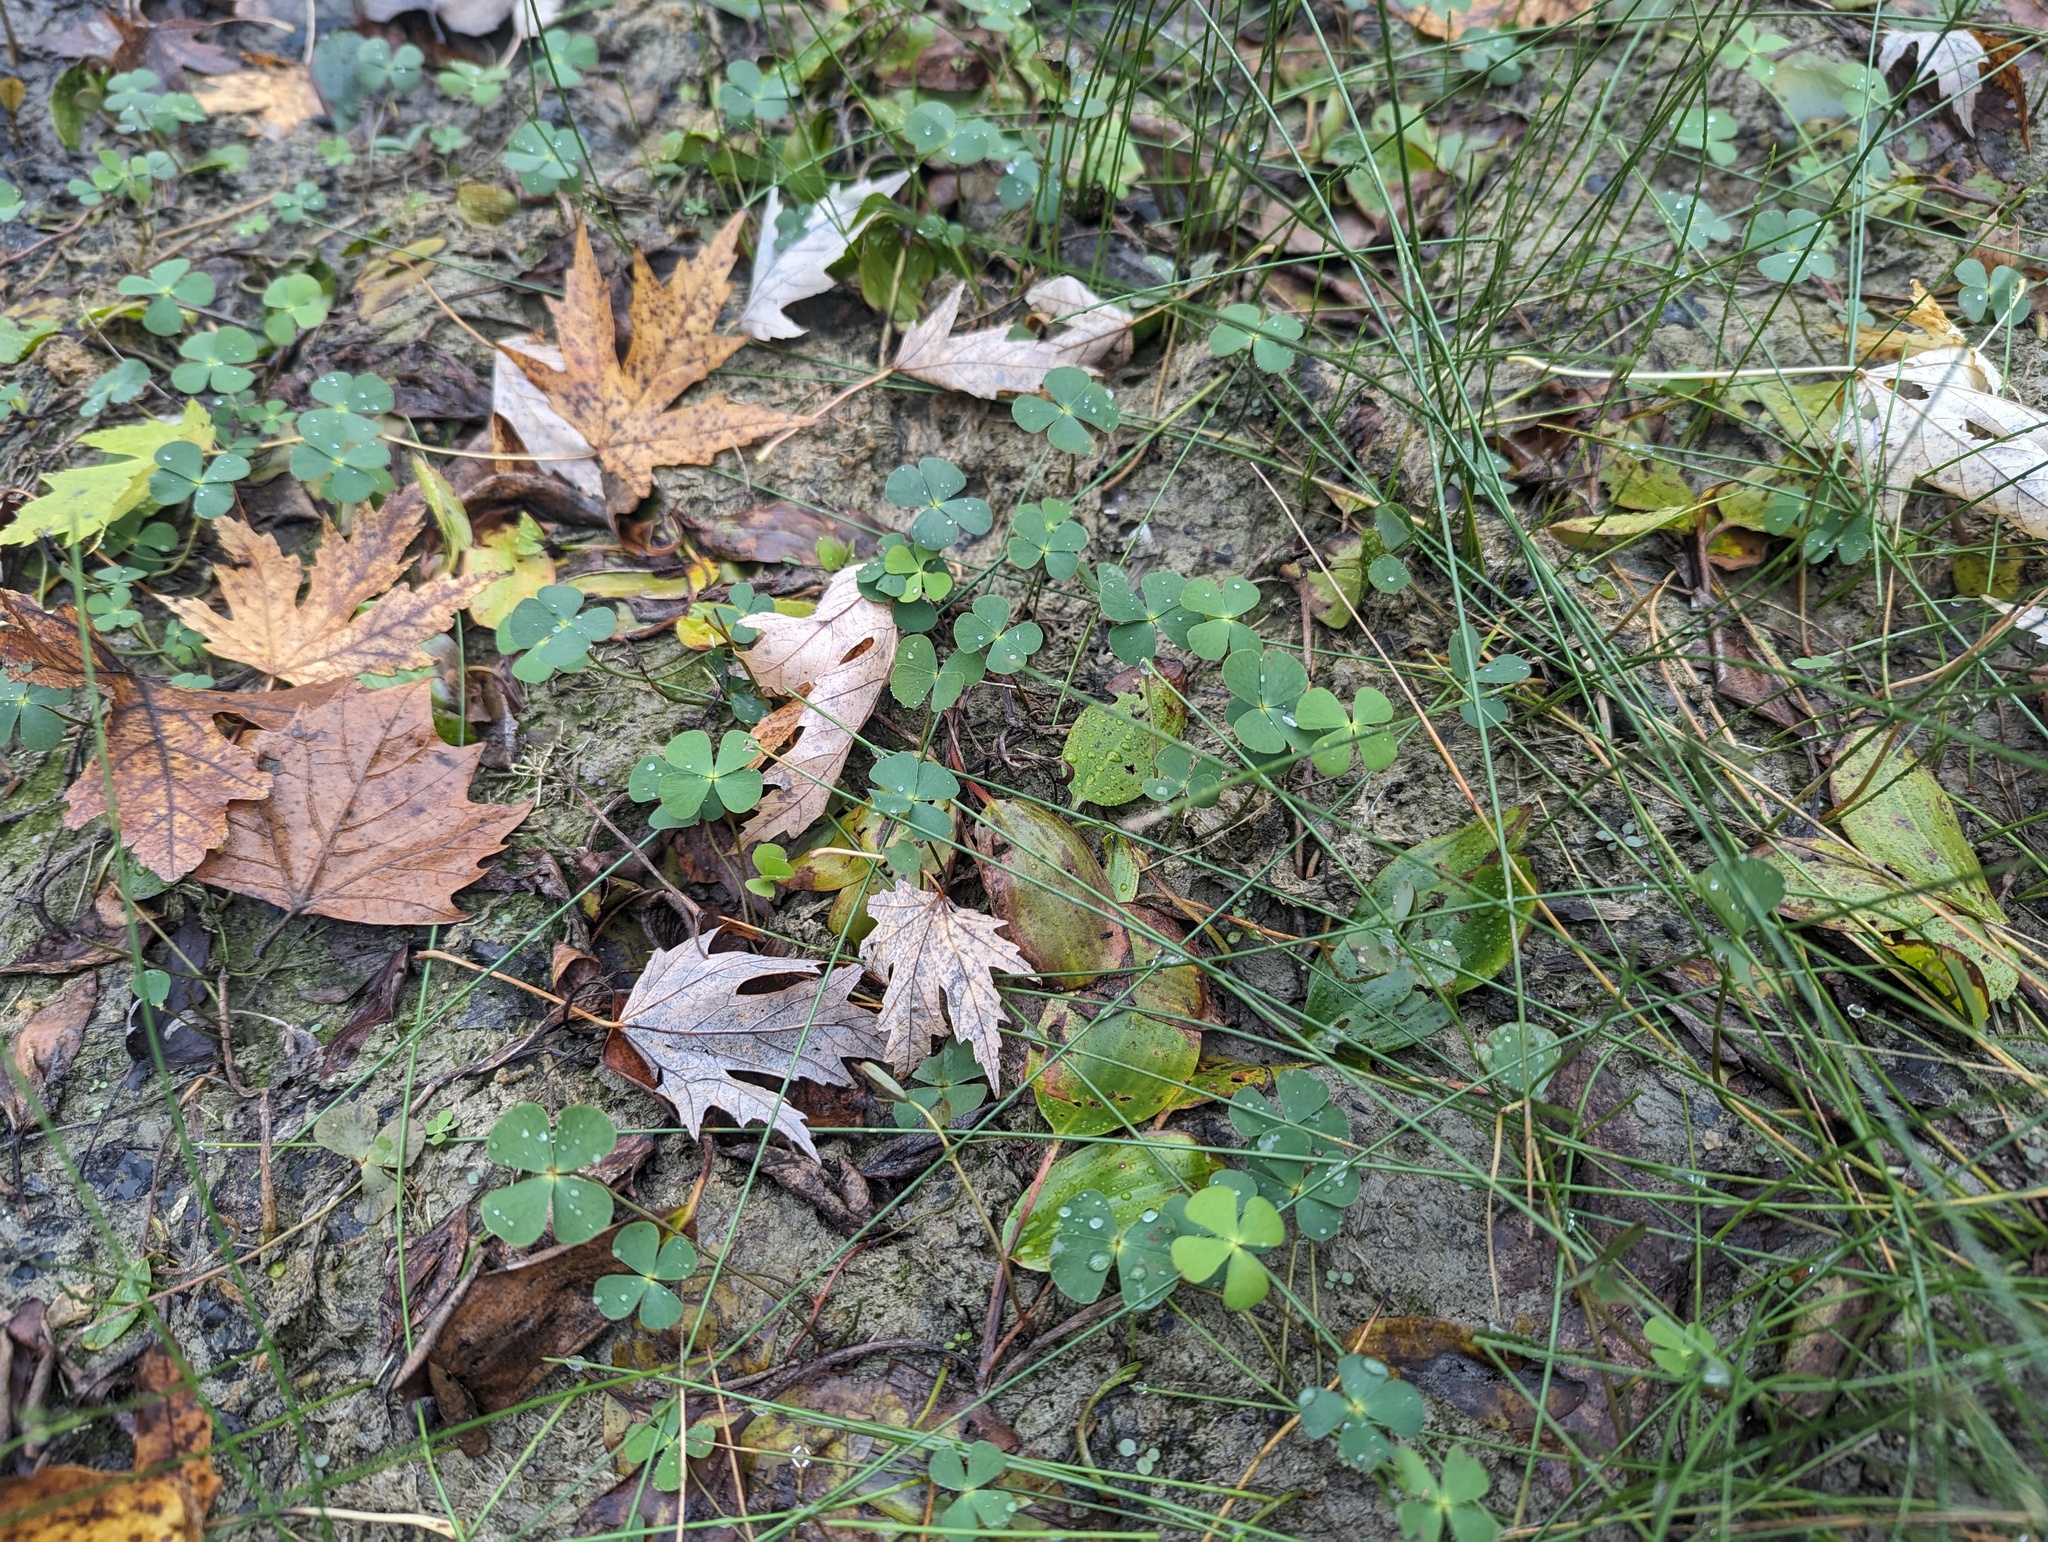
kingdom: Plantae
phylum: Tracheophyta
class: Polypodiopsida
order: Salviniales
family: Marsileaceae
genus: Marsilea
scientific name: Marsilea quadrifolia
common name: Water shamrock
